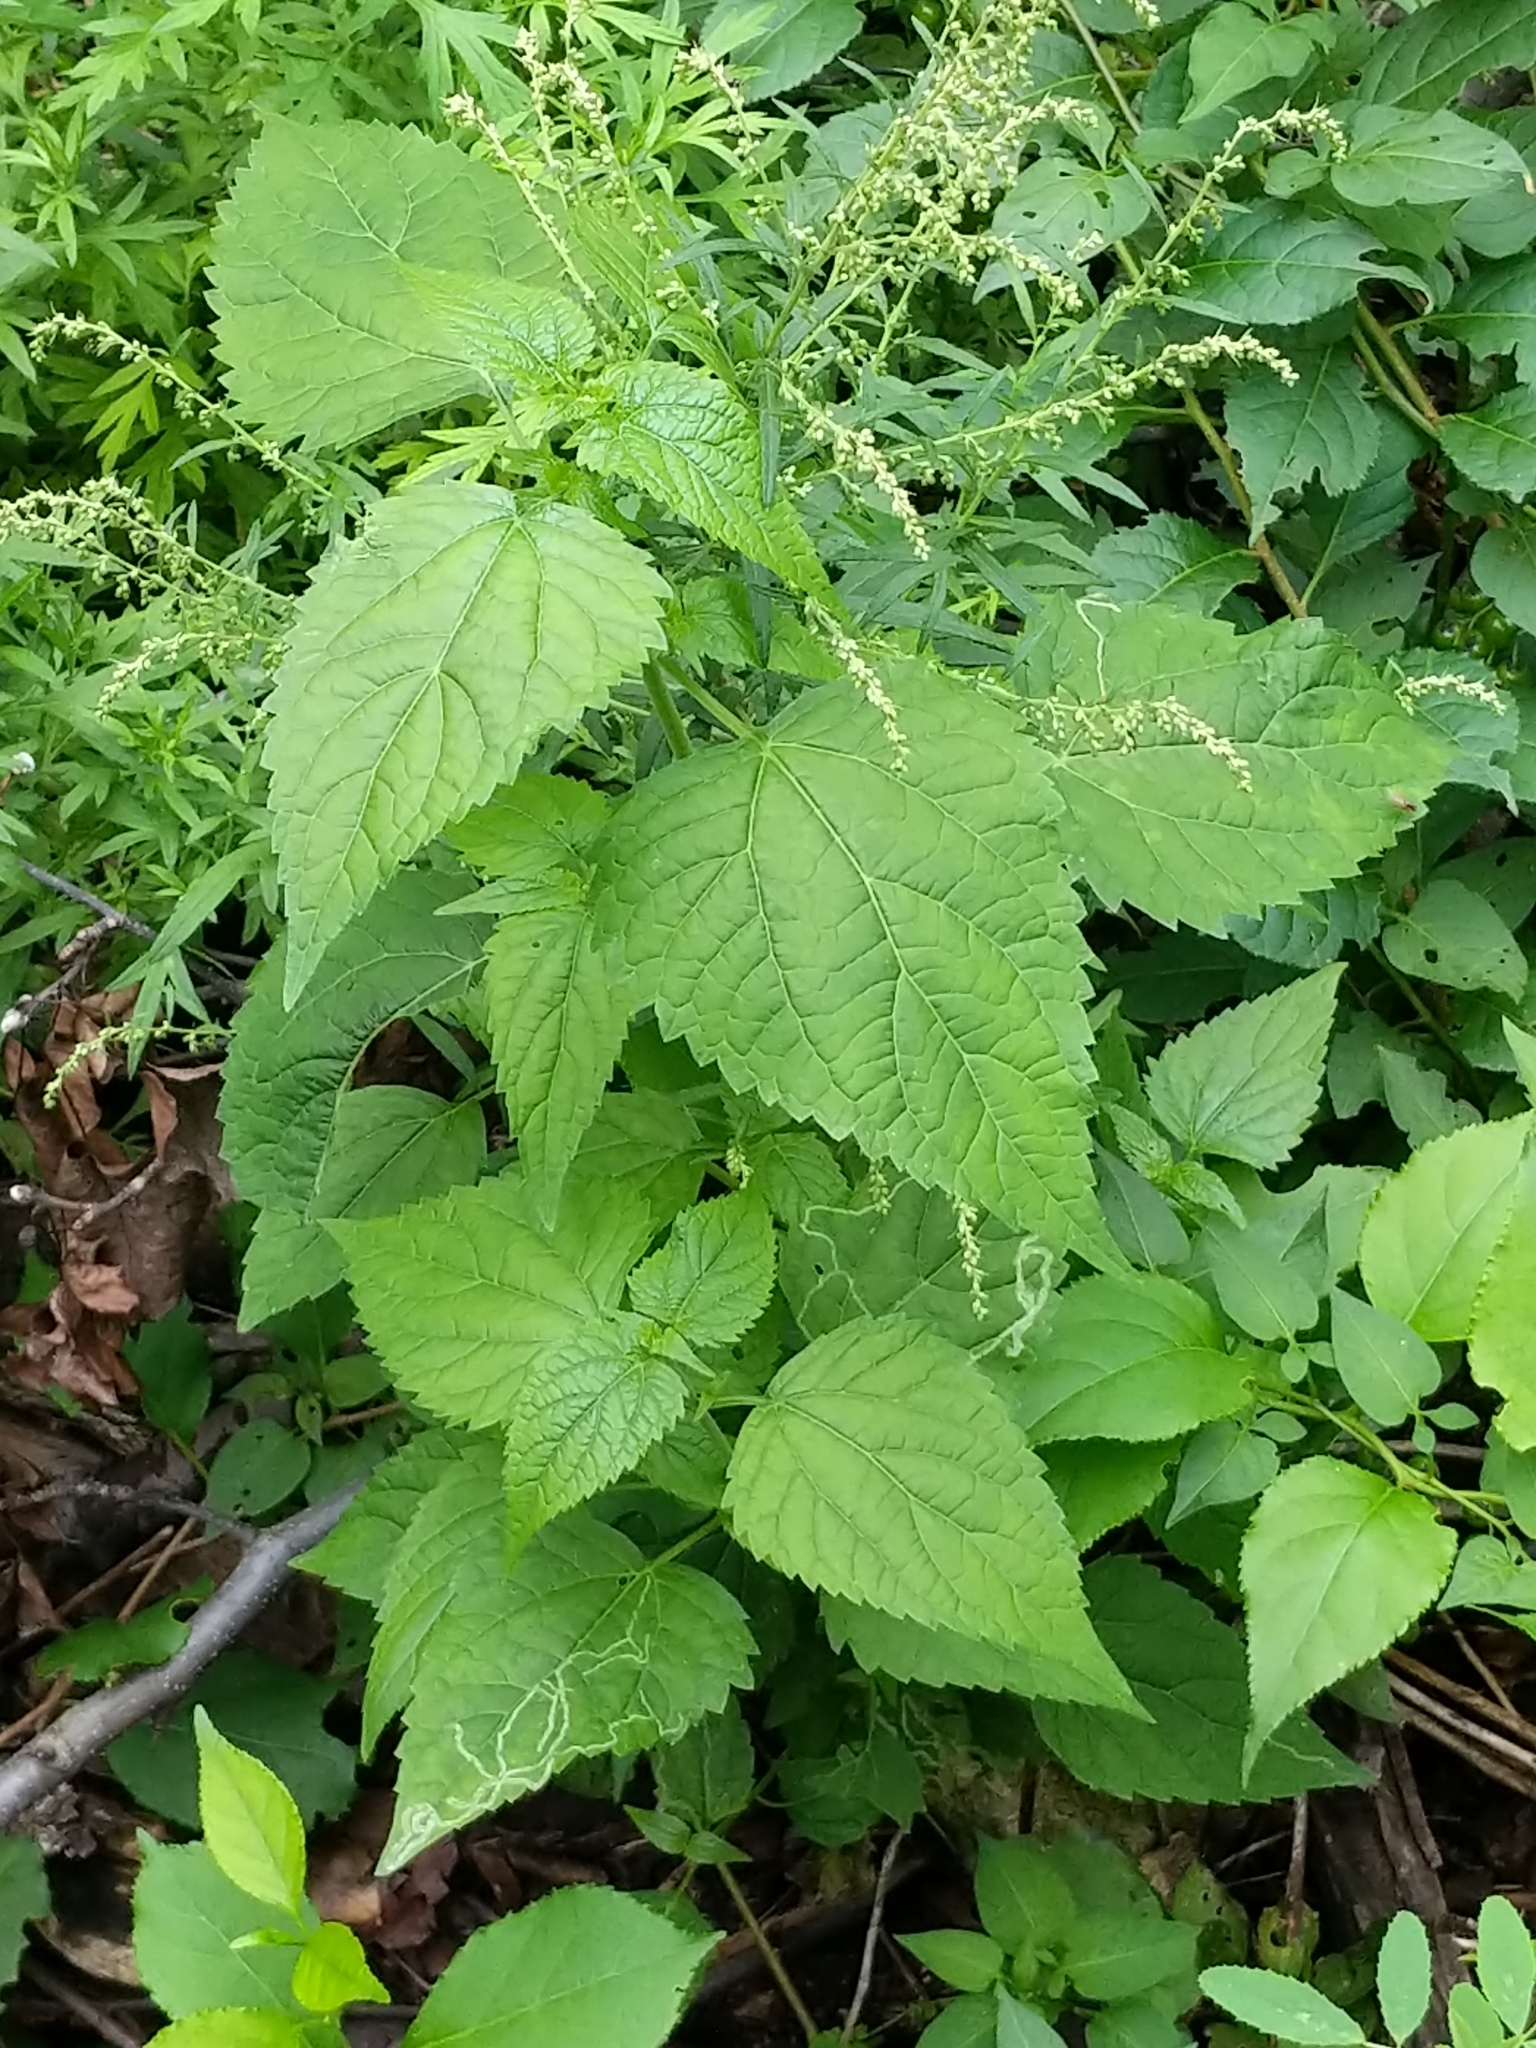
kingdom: Plantae
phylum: Tracheophyta
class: Magnoliopsida
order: Asterales
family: Asteraceae
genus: Ageratina
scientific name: Ageratina altissima
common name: White snakeroot
